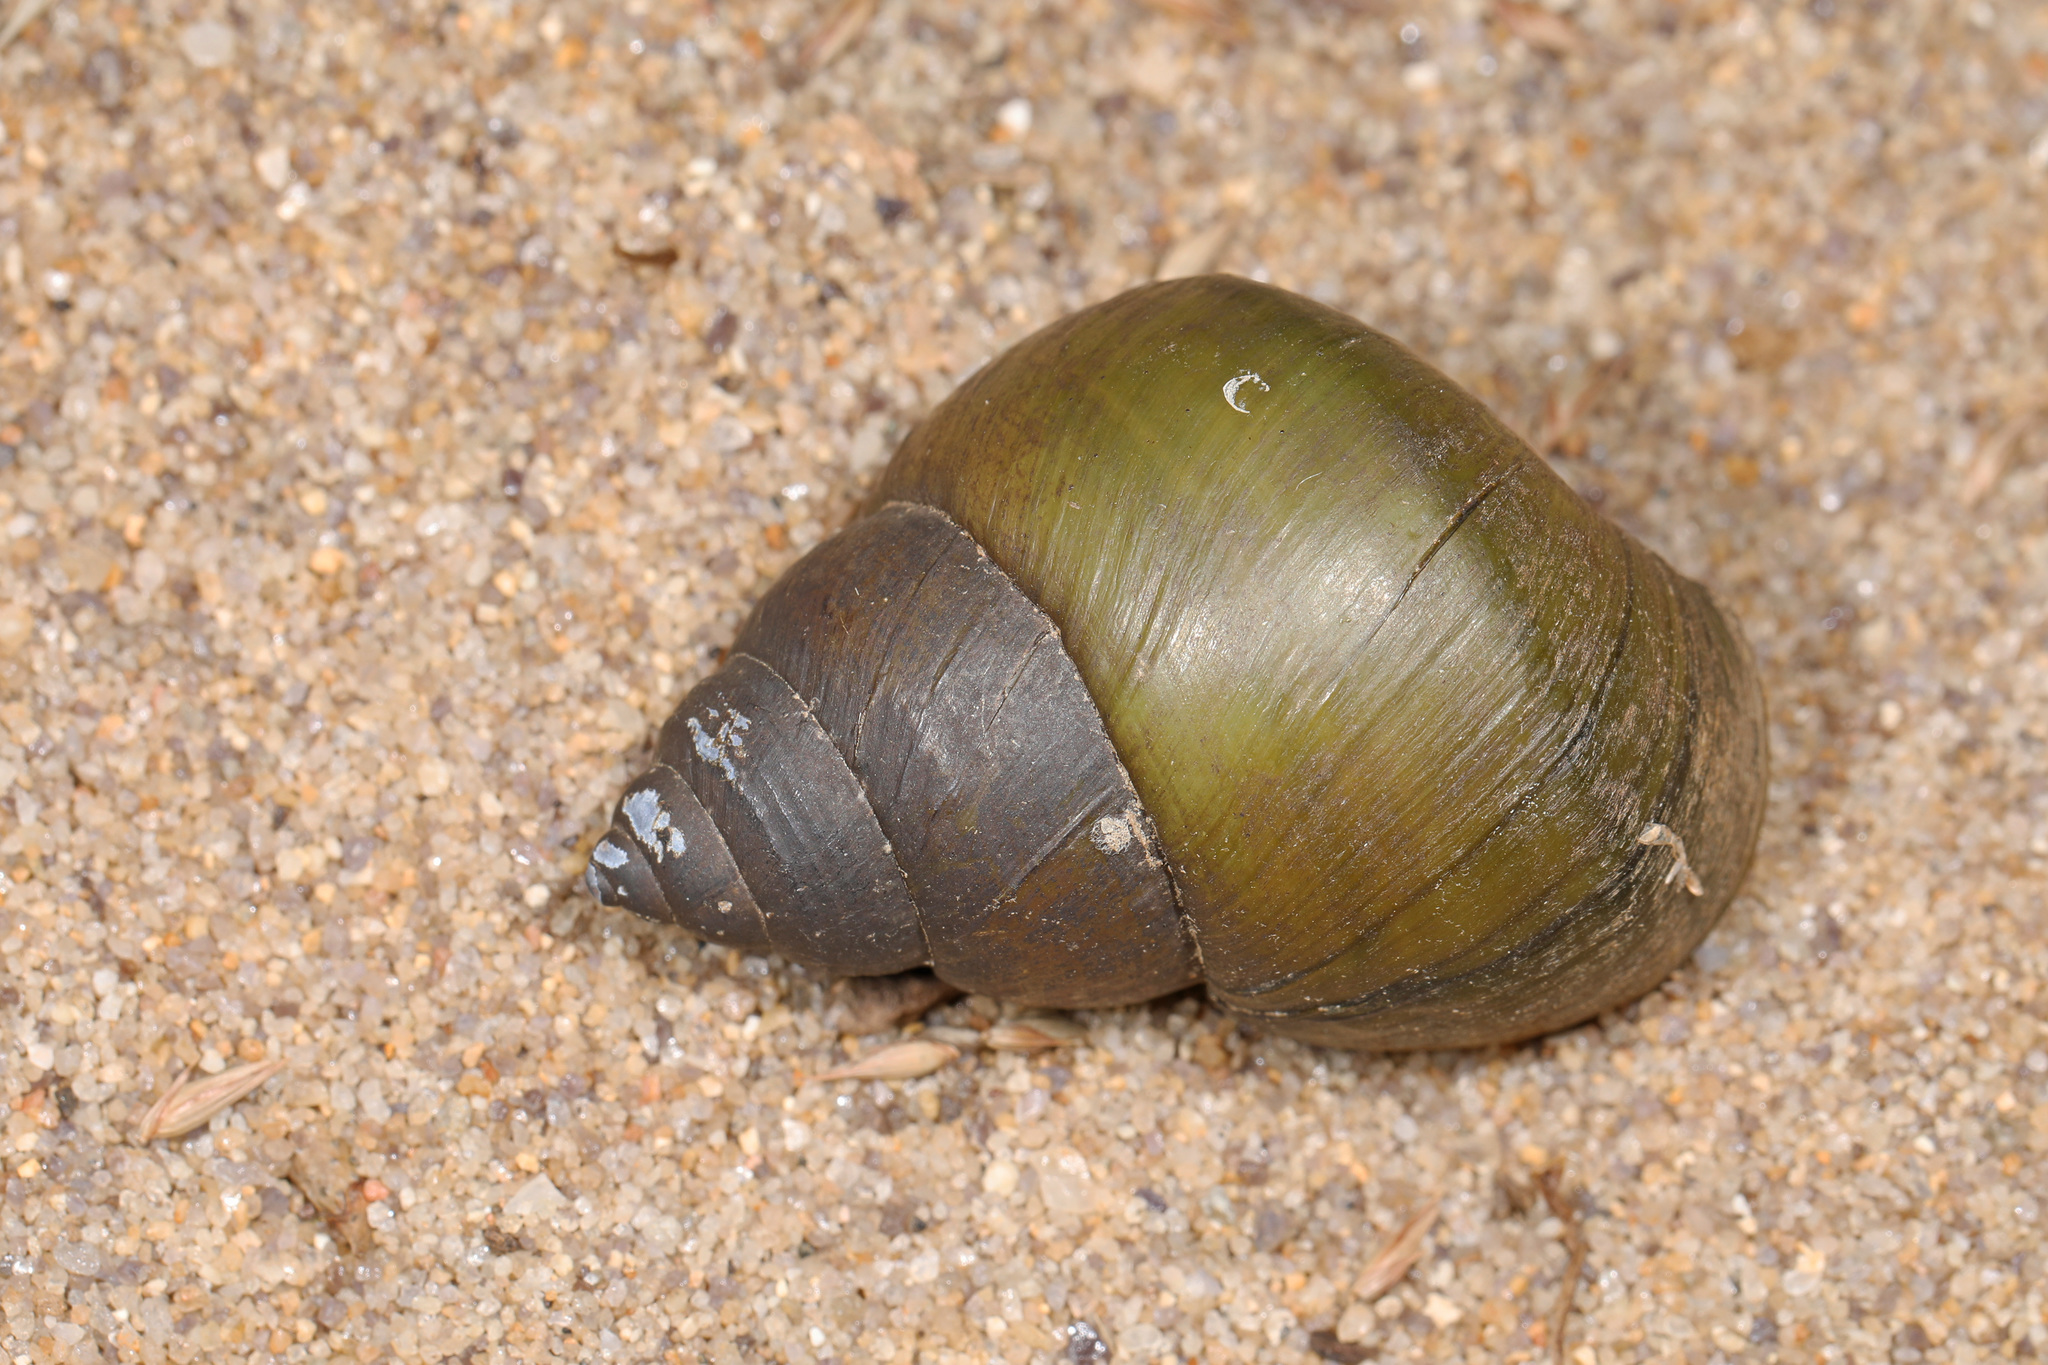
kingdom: Animalia
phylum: Mollusca
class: Gastropoda
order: Architaenioglossa
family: Viviparidae
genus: Cipangopaludina
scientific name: Cipangopaludina chinensis
